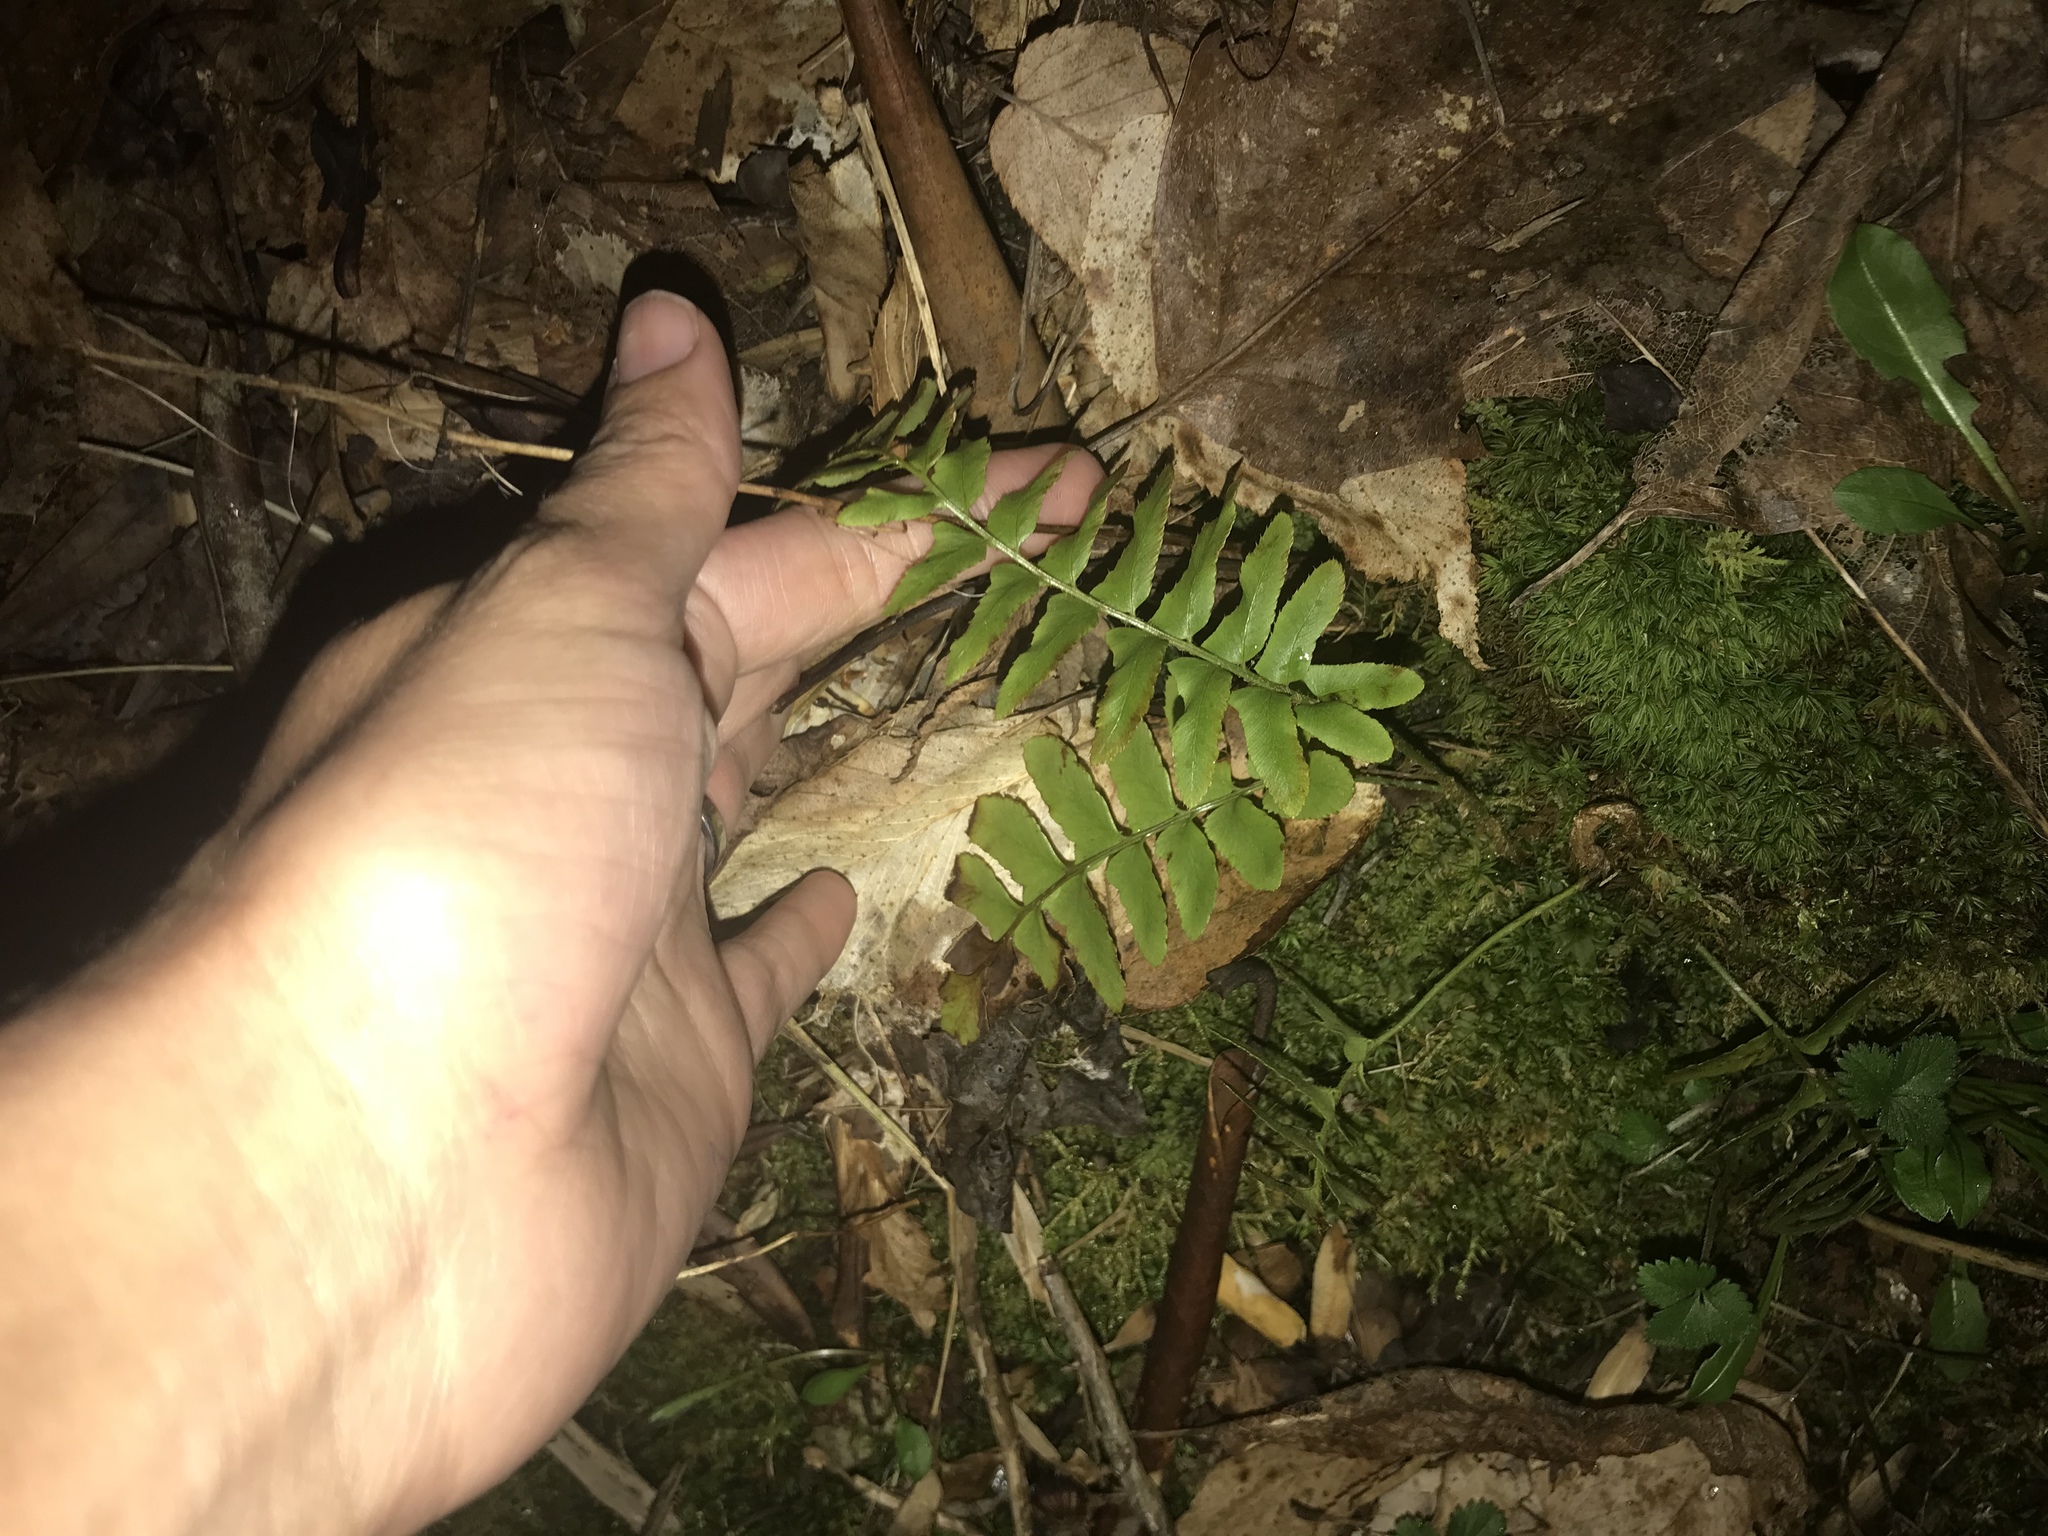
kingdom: Plantae
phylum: Tracheophyta
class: Polypodiopsida
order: Polypodiales
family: Dryopteridaceae
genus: Polystichum
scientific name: Polystichum acrostichoides
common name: Christmas fern
